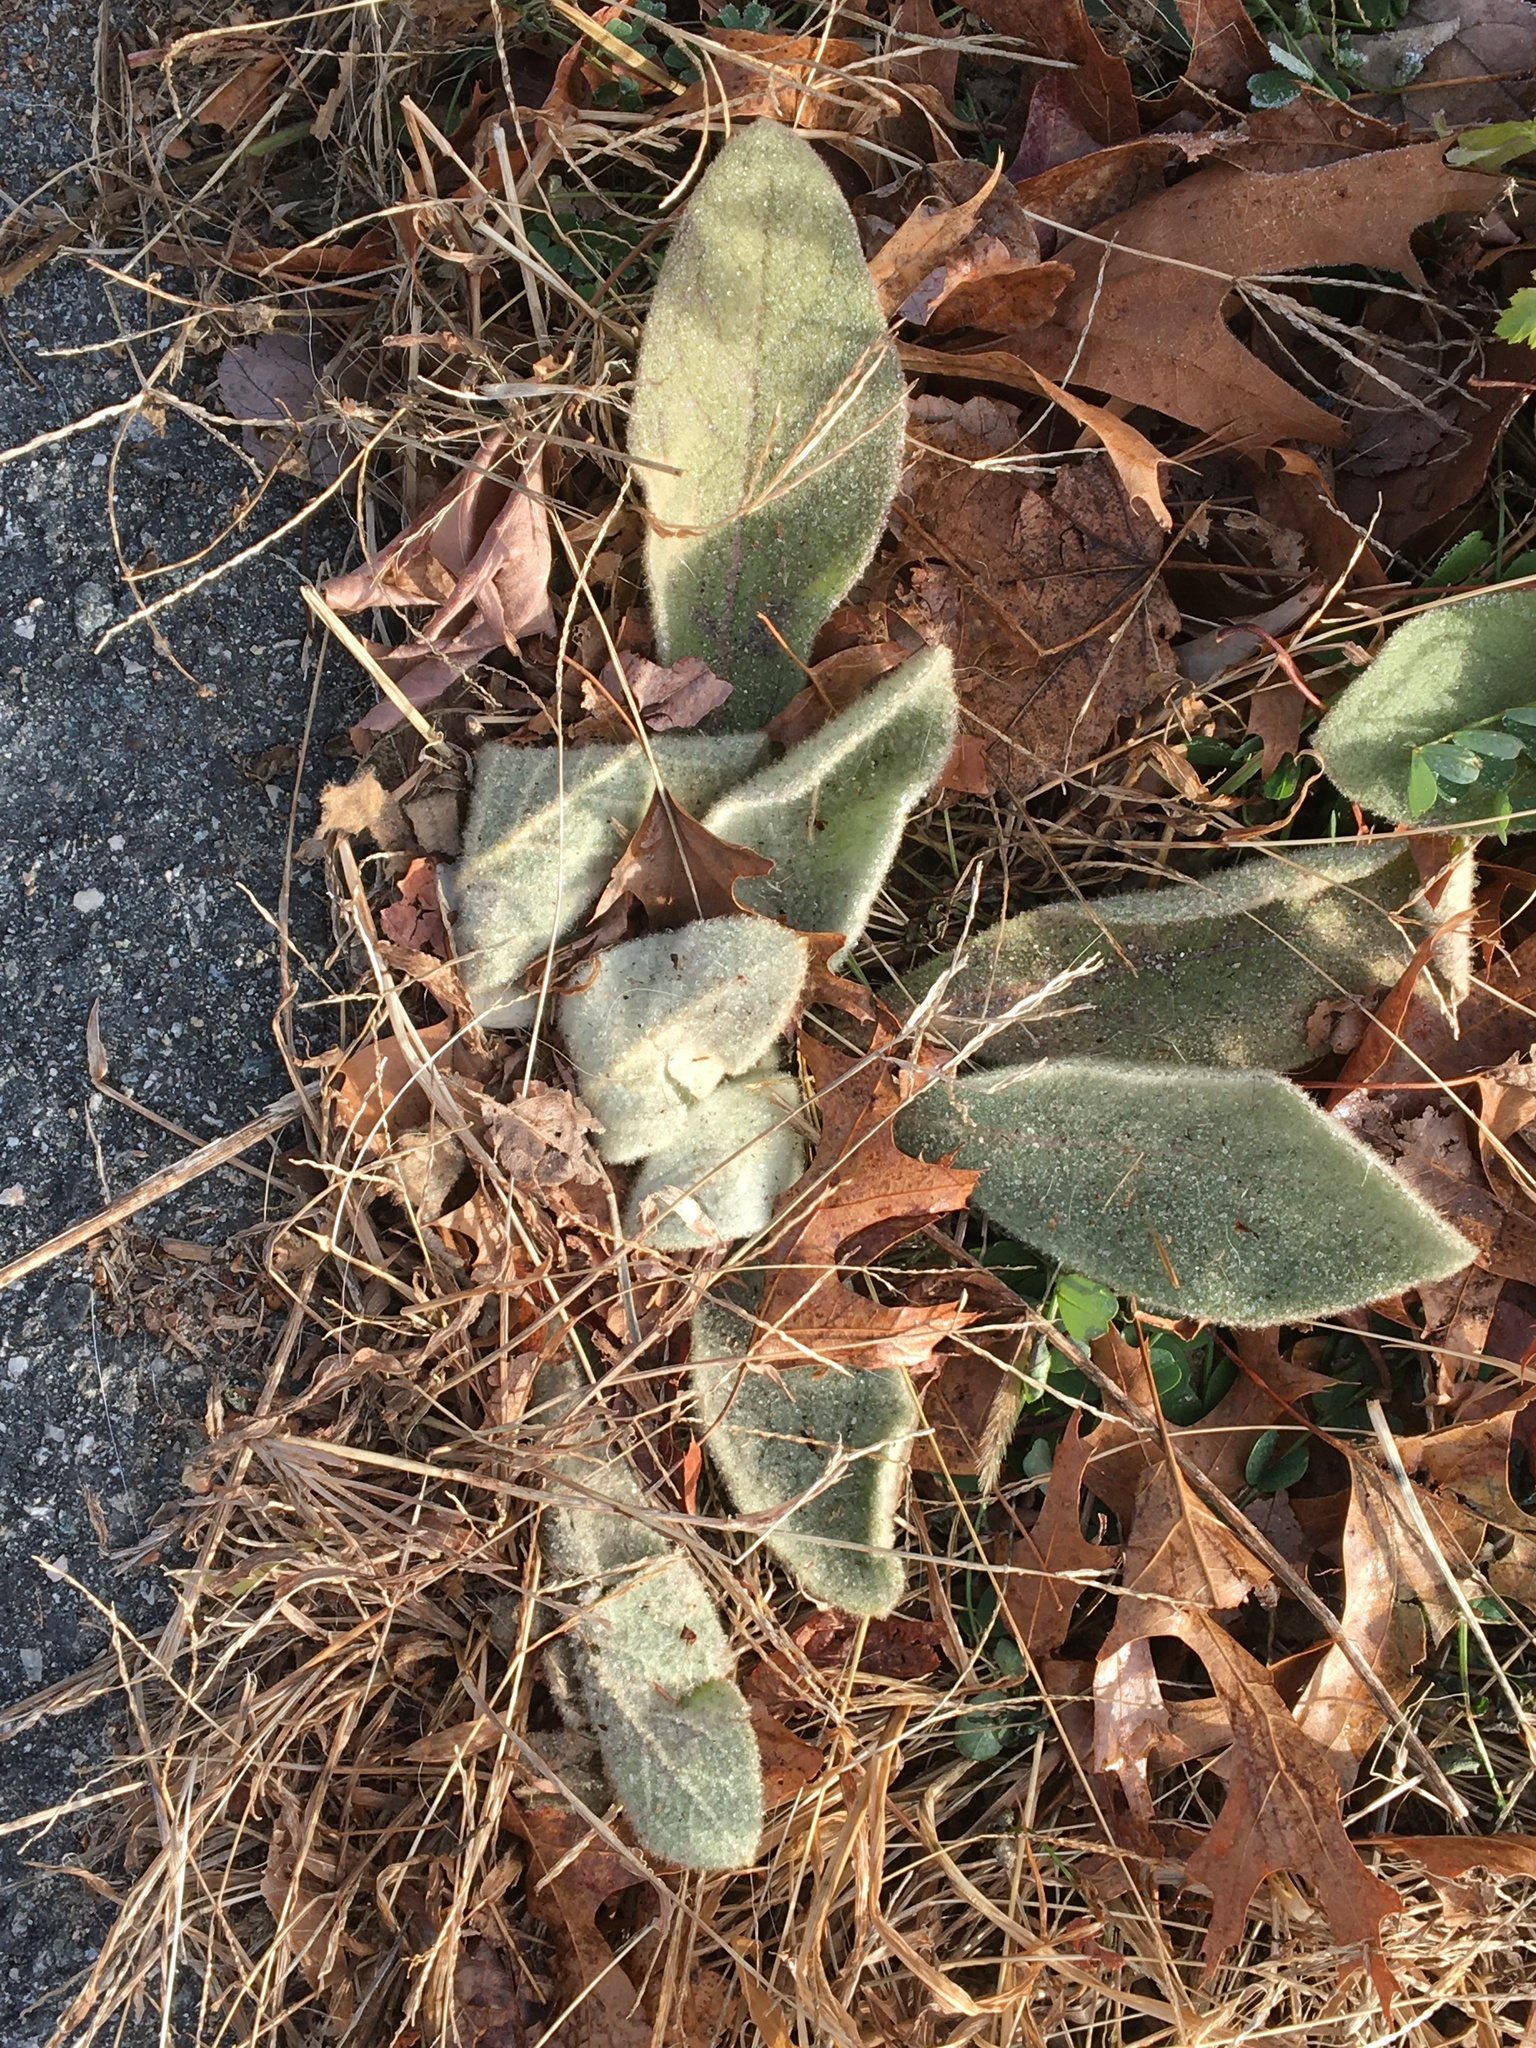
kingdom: Plantae
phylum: Tracheophyta
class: Magnoliopsida
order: Lamiales
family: Scrophulariaceae
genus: Verbascum
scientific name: Verbascum thapsus
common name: Common mullein
